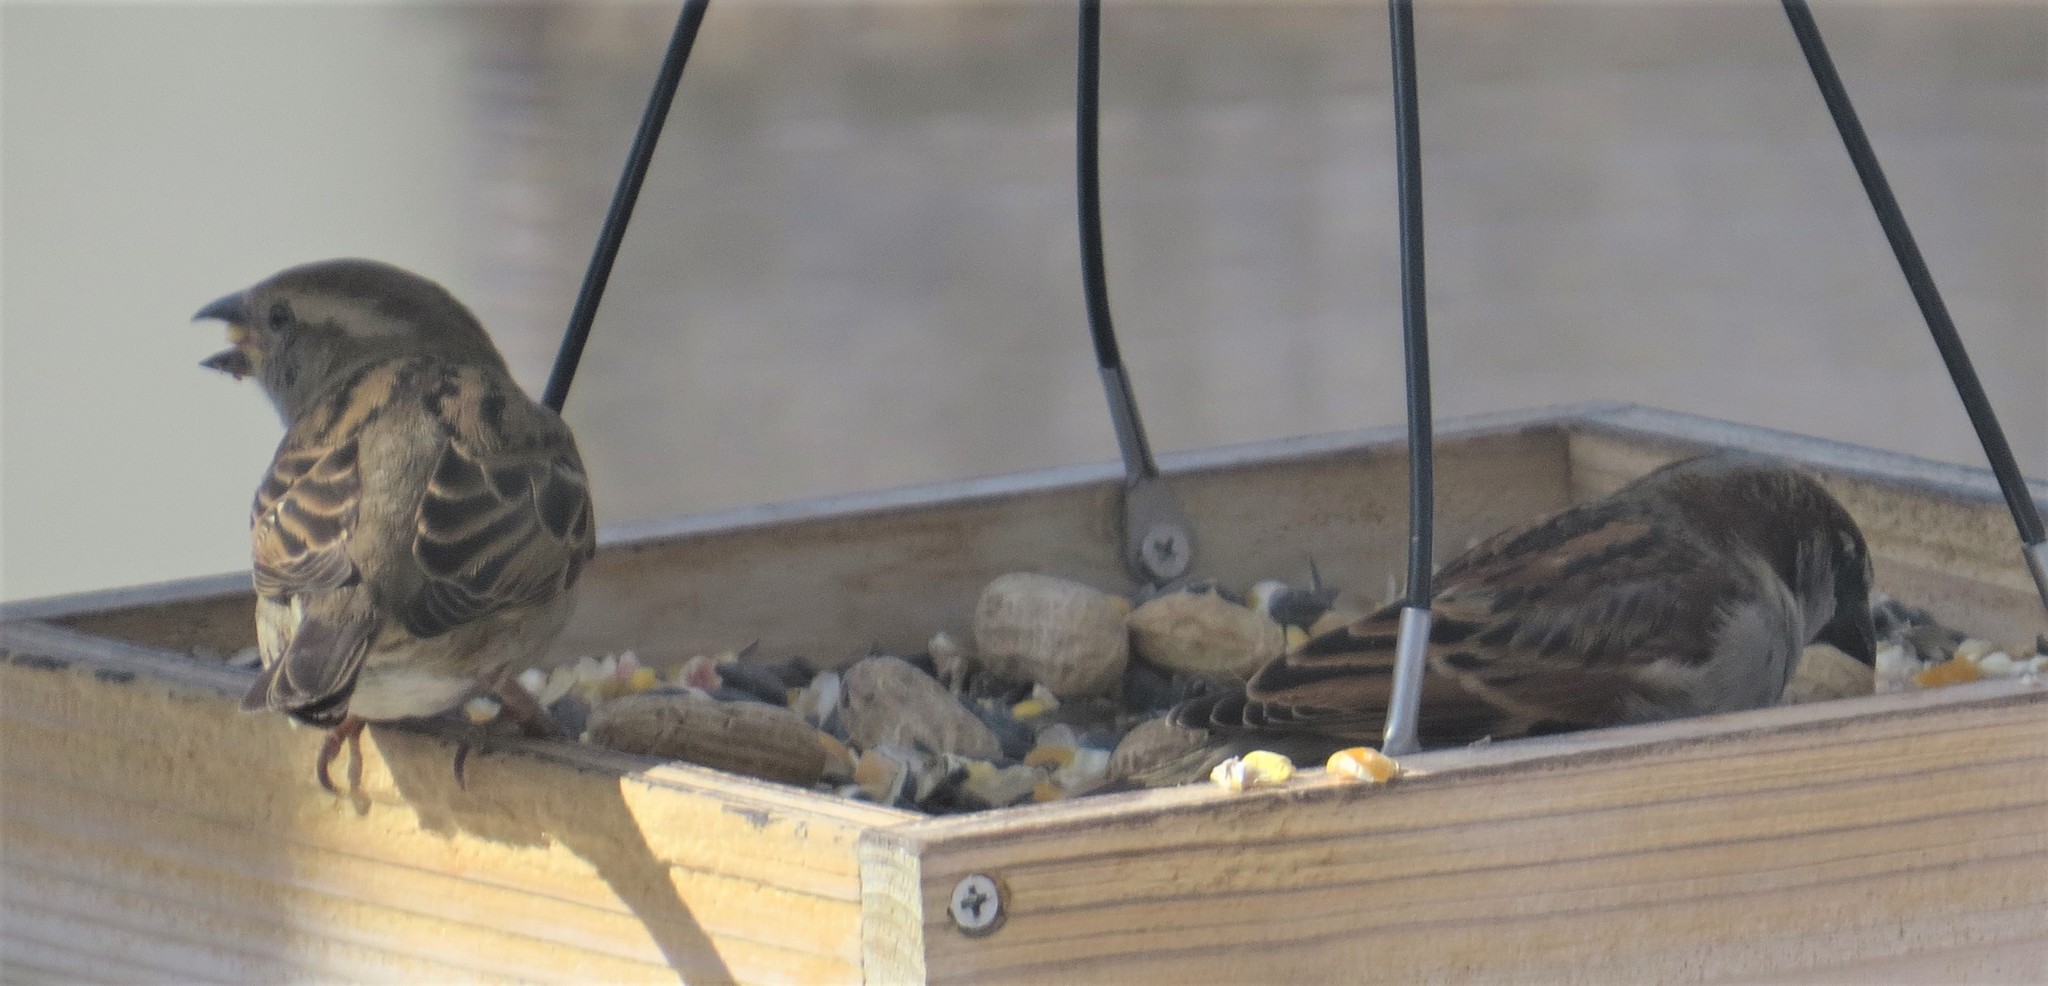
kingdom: Animalia
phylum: Chordata
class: Aves
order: Passeriformes
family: Passeridae
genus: Passer
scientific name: Passer domesticus
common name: House sparrow
